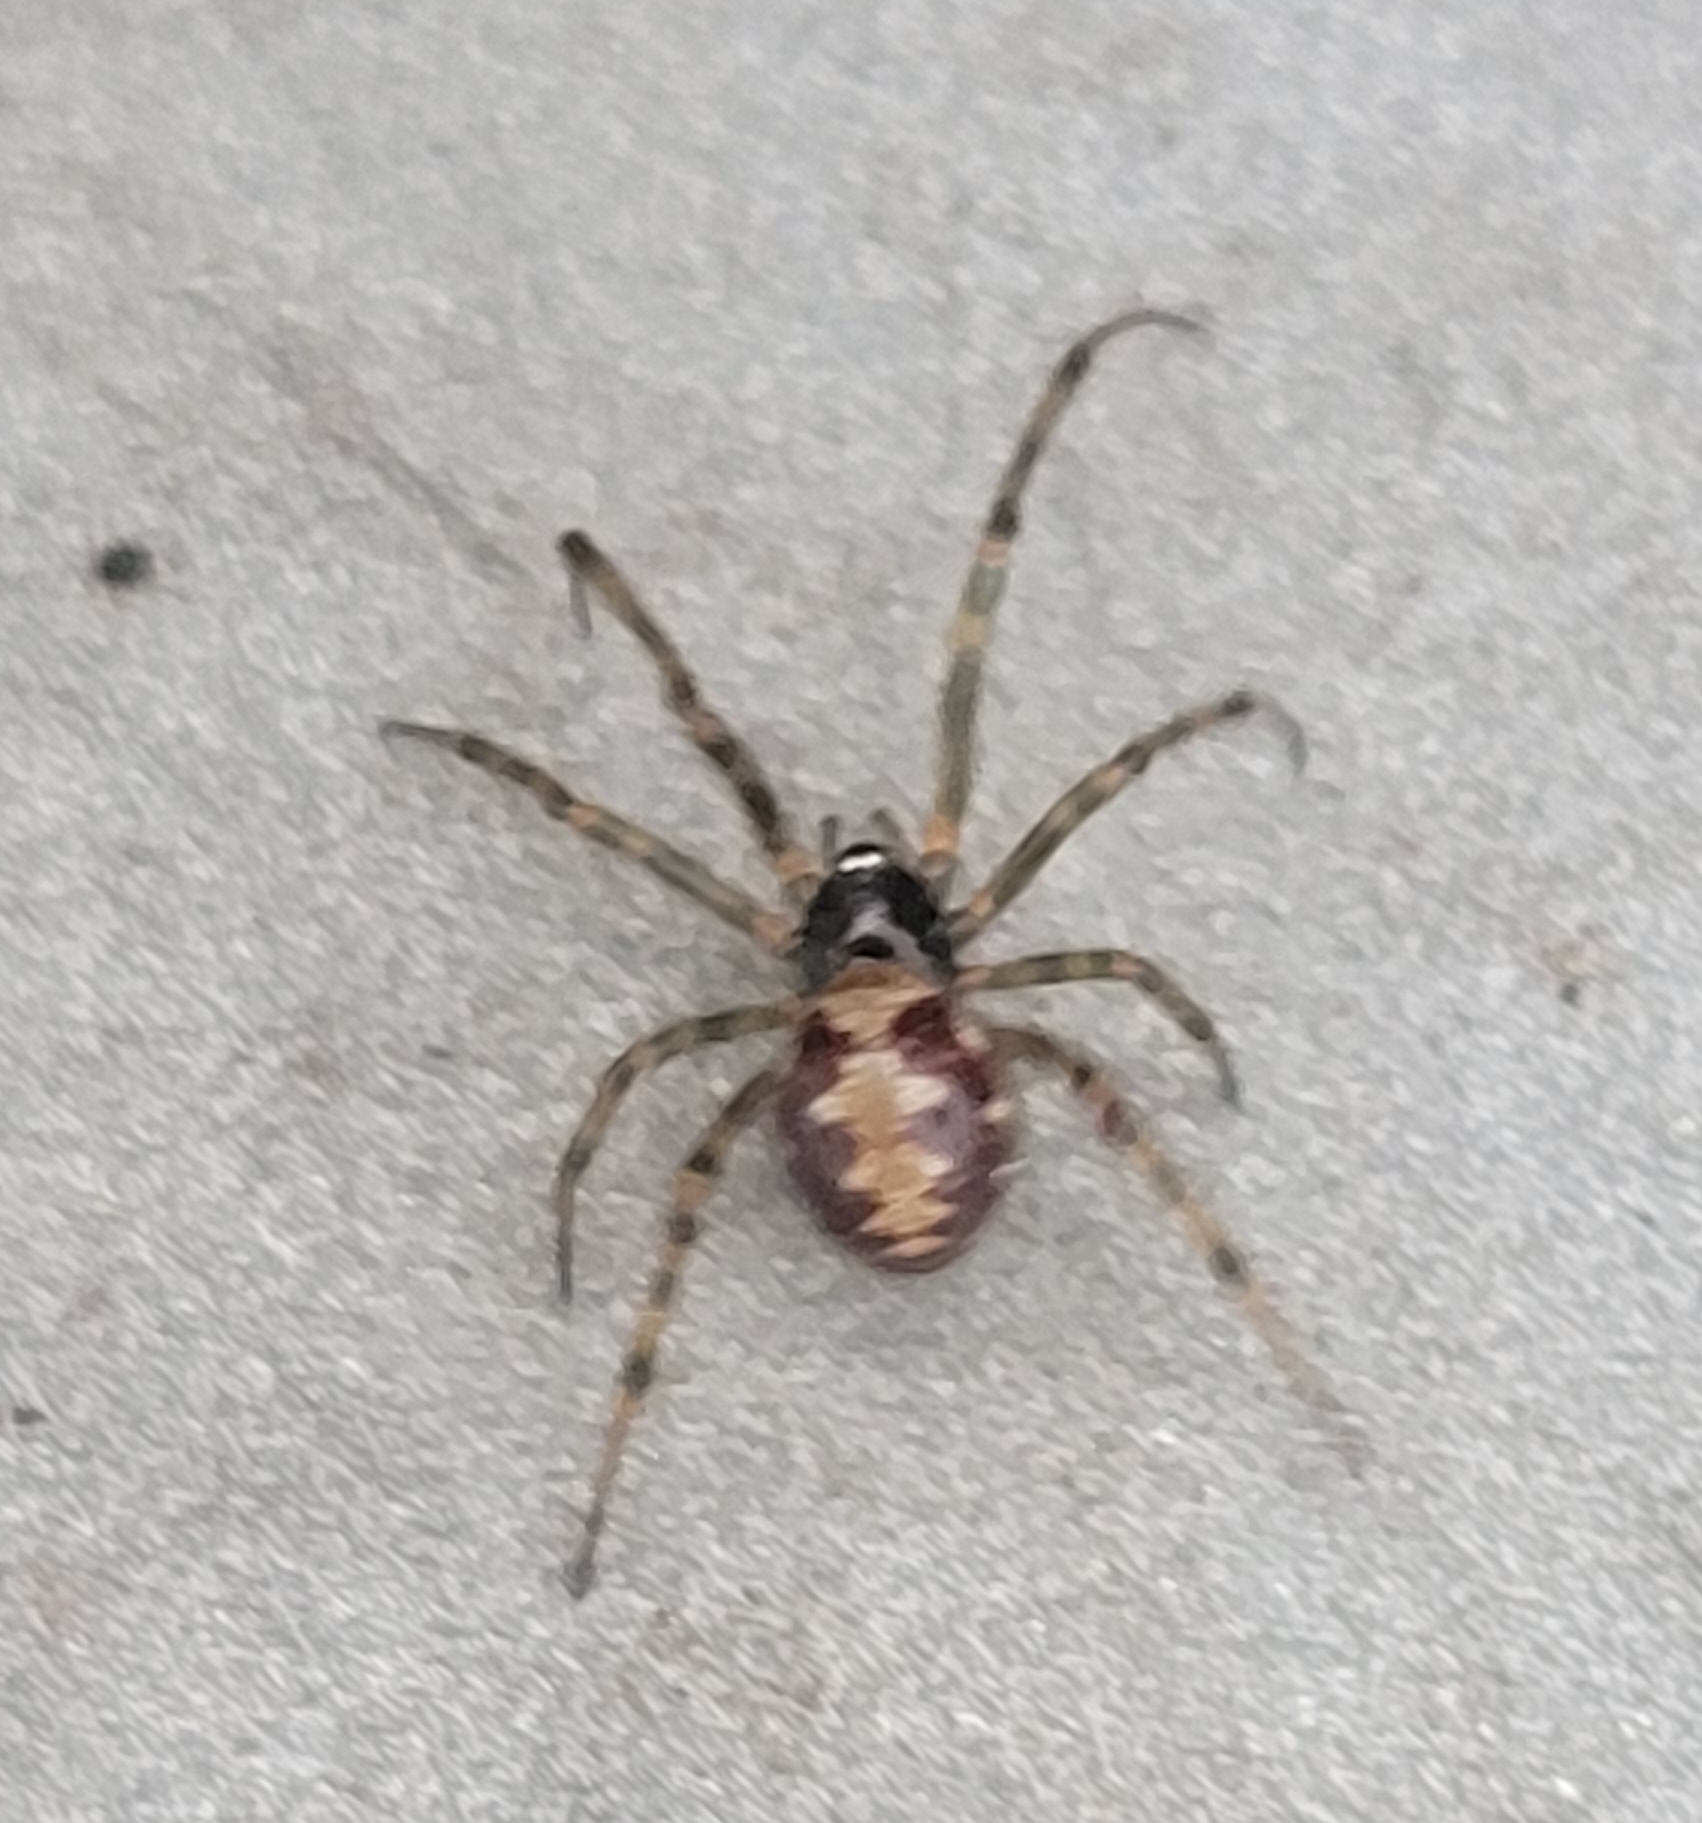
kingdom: Animalia
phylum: Arthropoda
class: Arachnida
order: Araneae
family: Theridiidae
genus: Steatoda
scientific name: Steatoda triangulosa
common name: Triangulate bud spider
